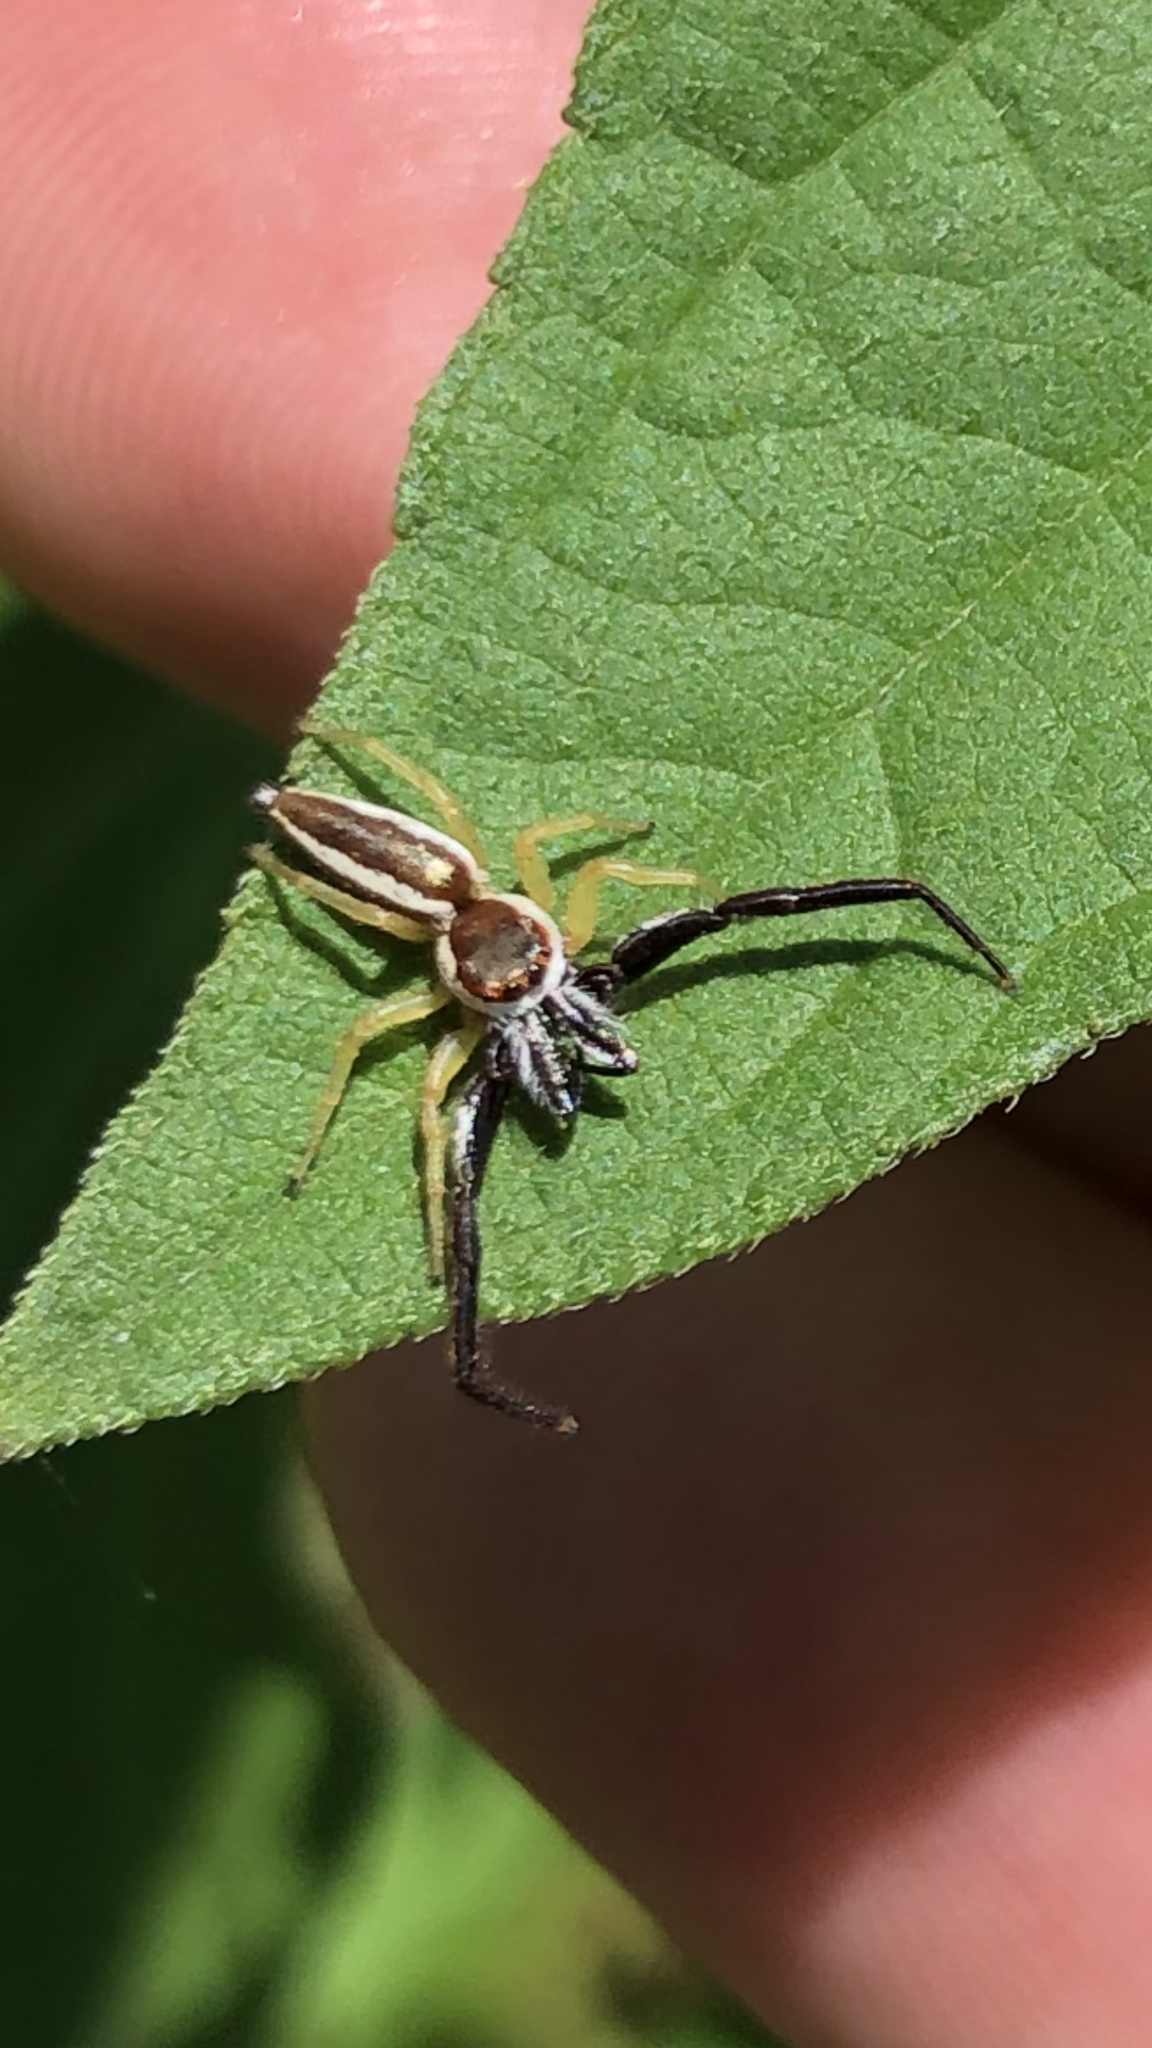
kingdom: Animalia
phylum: Arthropoda
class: Arachnida
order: Araneae
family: Salticidae
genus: Hentzia
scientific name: Hentzia palmarum
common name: Common hentz jumping spider
